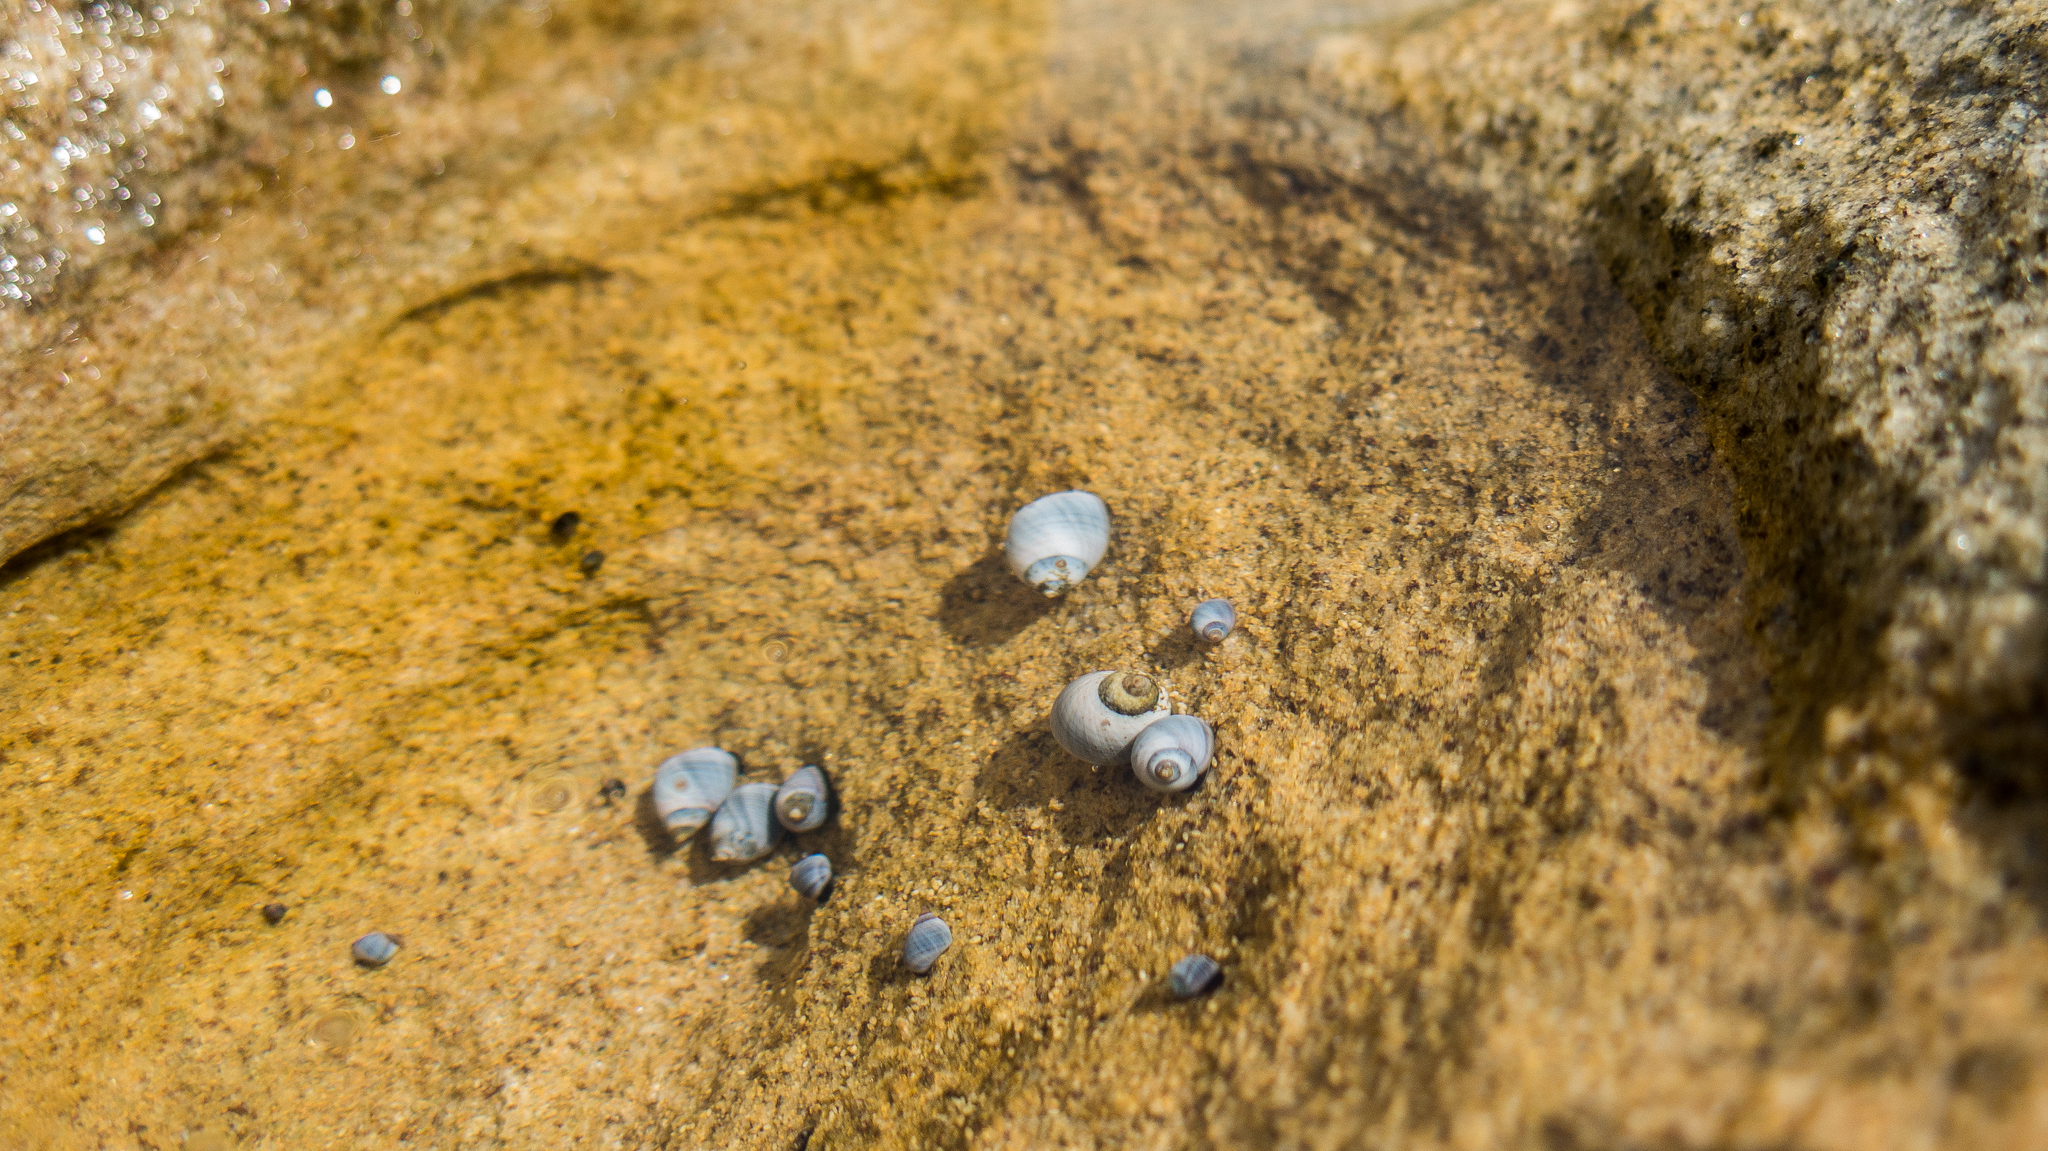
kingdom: Animalia
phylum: Mollusca
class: Gastropoda
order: Littorinimorpha
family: Littorinidae
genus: Austrolittorina
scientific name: Austrolittorina unifasciata
